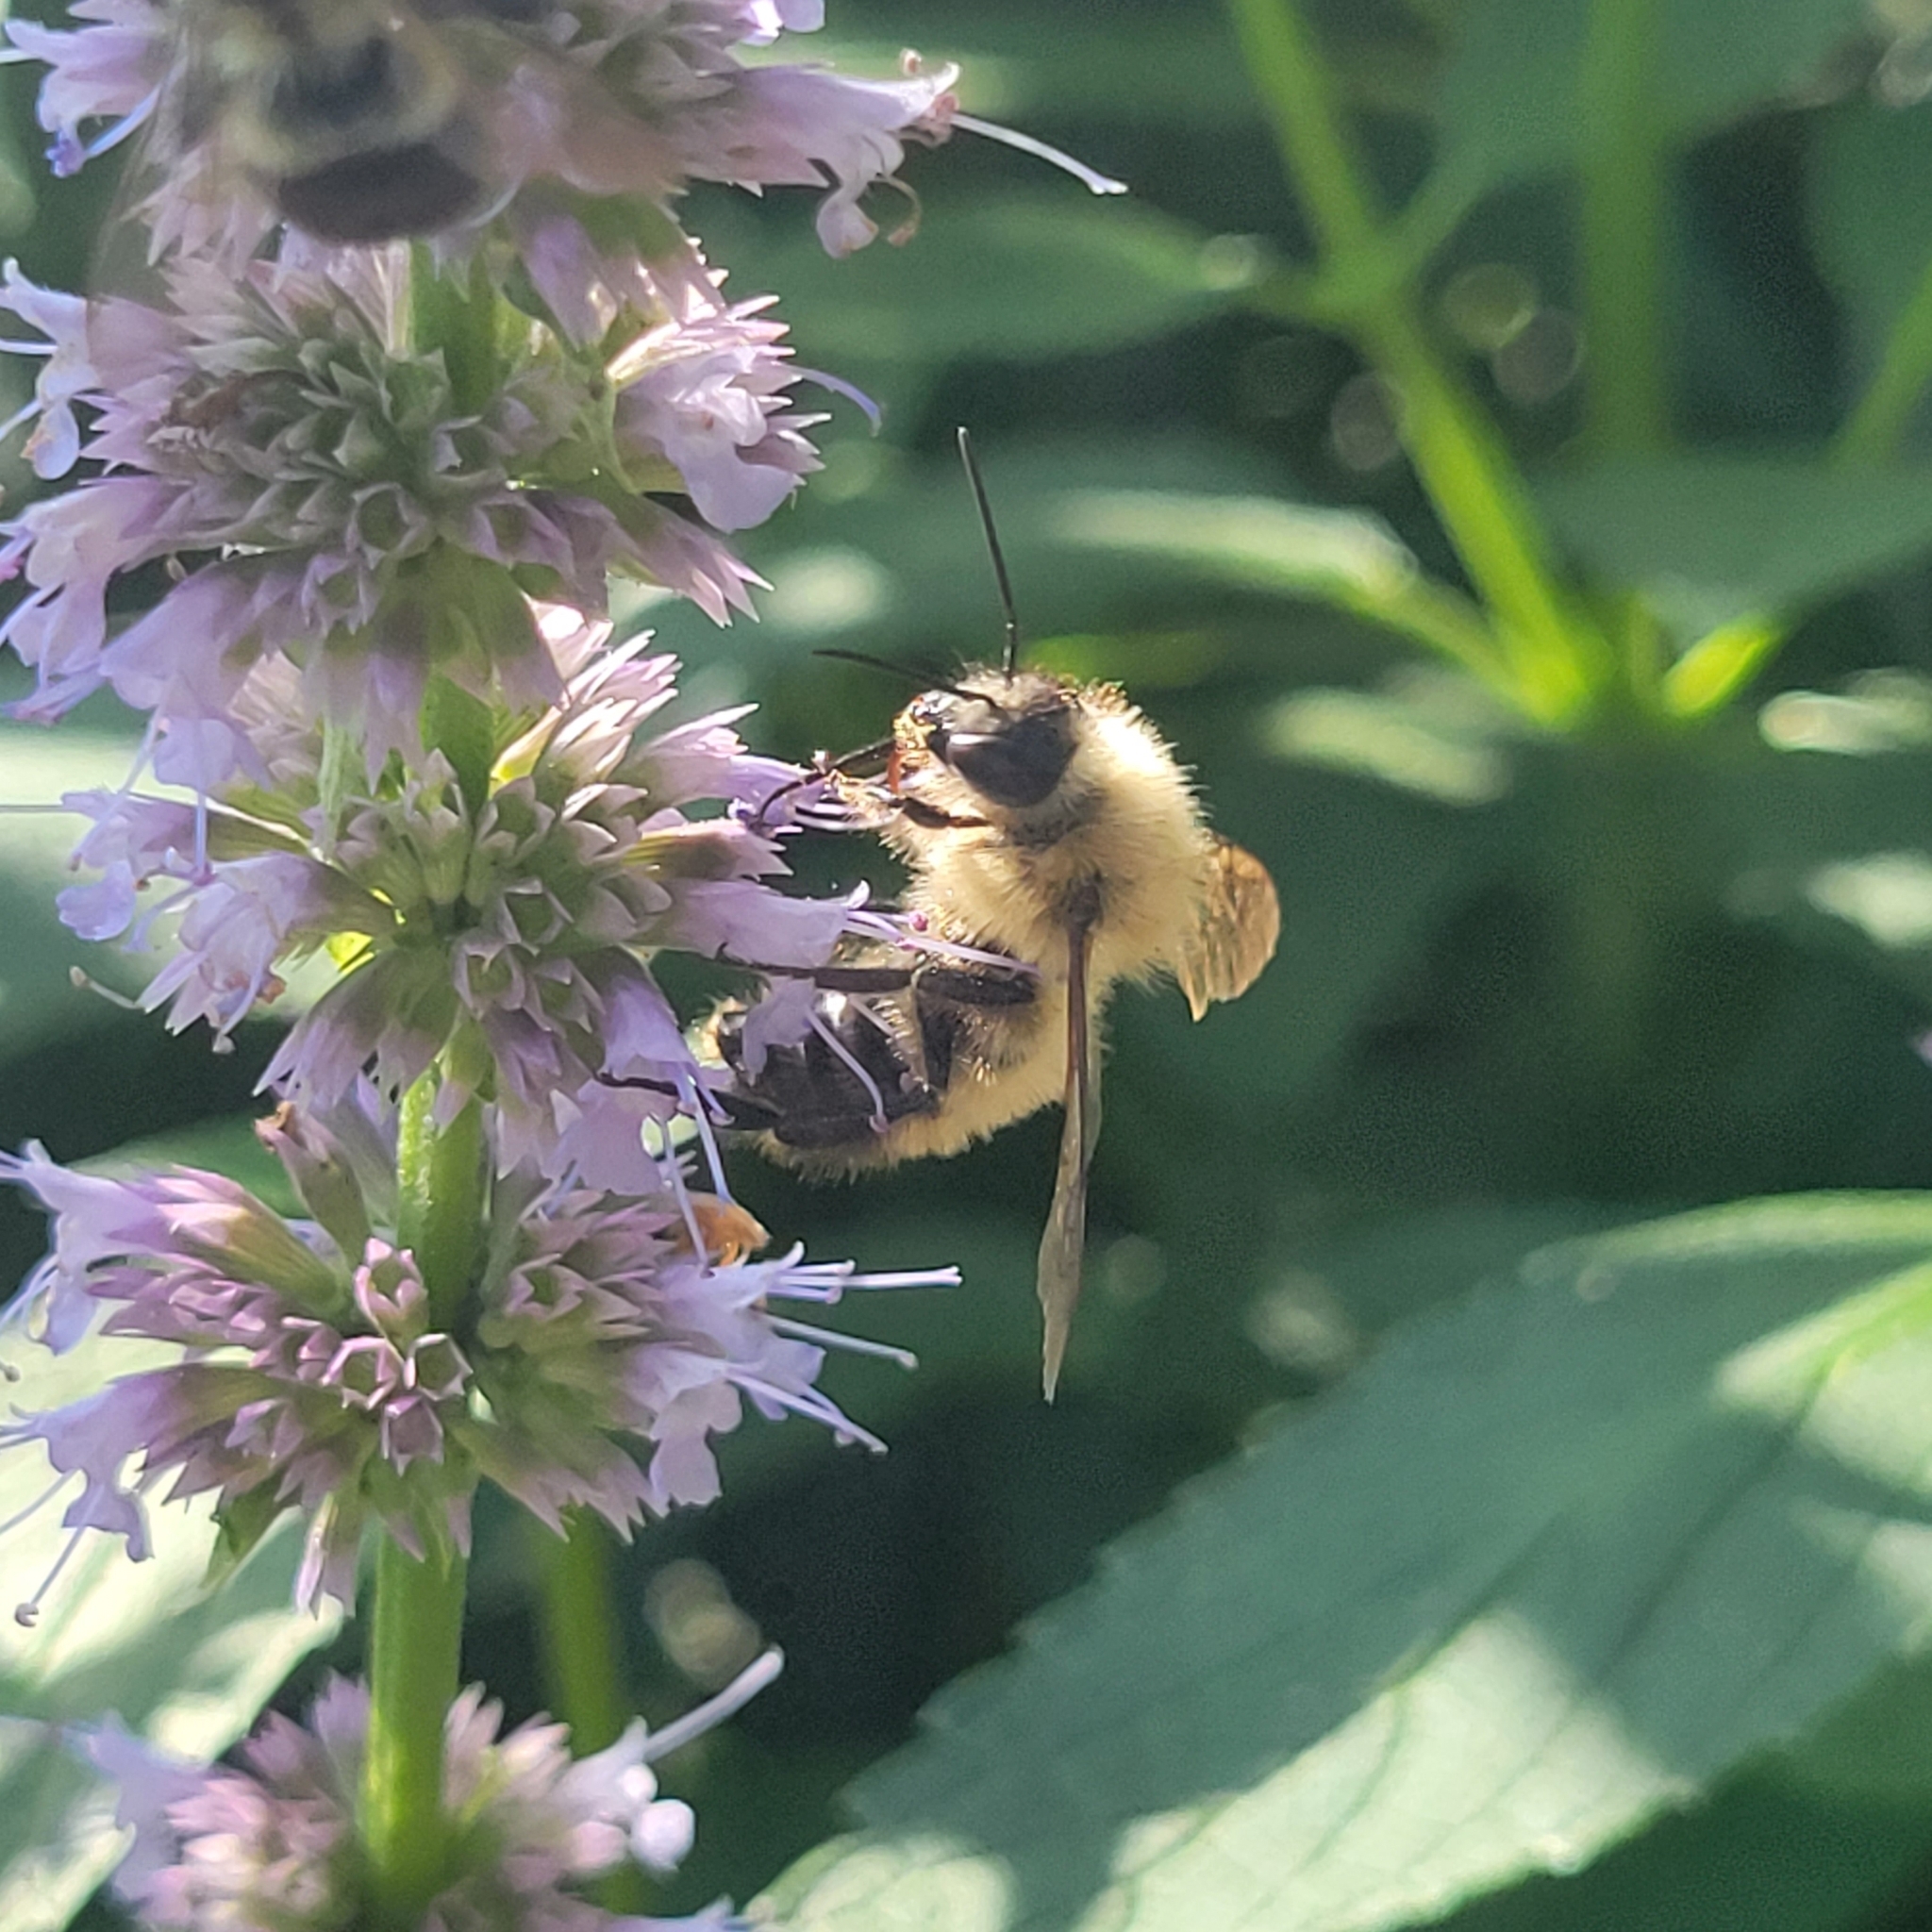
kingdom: Animalia
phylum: Arthropoda
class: Insecta
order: Hymenoptera
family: Apidae
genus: Bombus
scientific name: Bombus perplexus
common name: Confusing bumble bee
